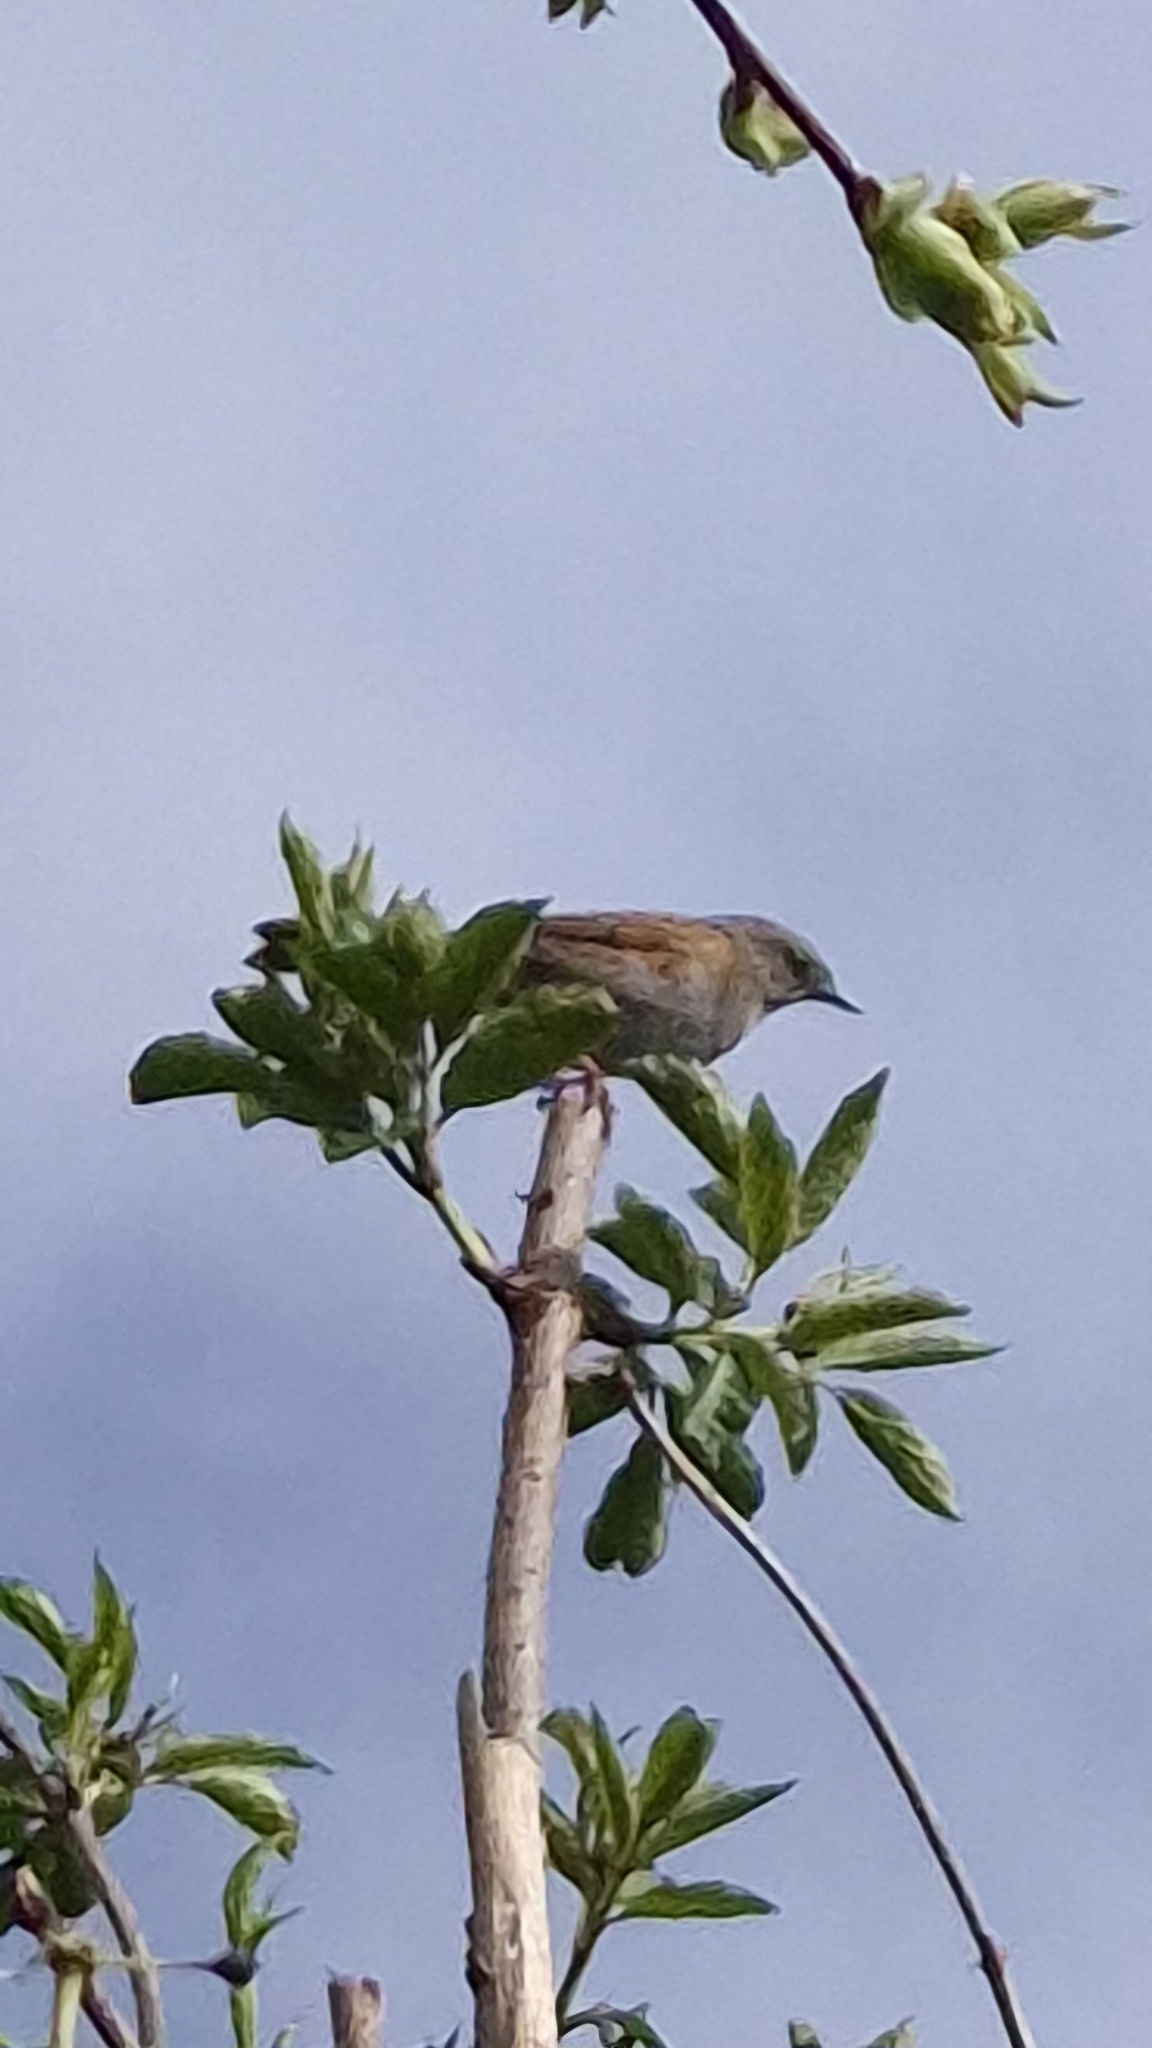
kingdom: Animalia
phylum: Chordata
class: Aves
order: Passeriformes
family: Prunellidae
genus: Prunella
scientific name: Prunella modularis
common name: Dunnock
